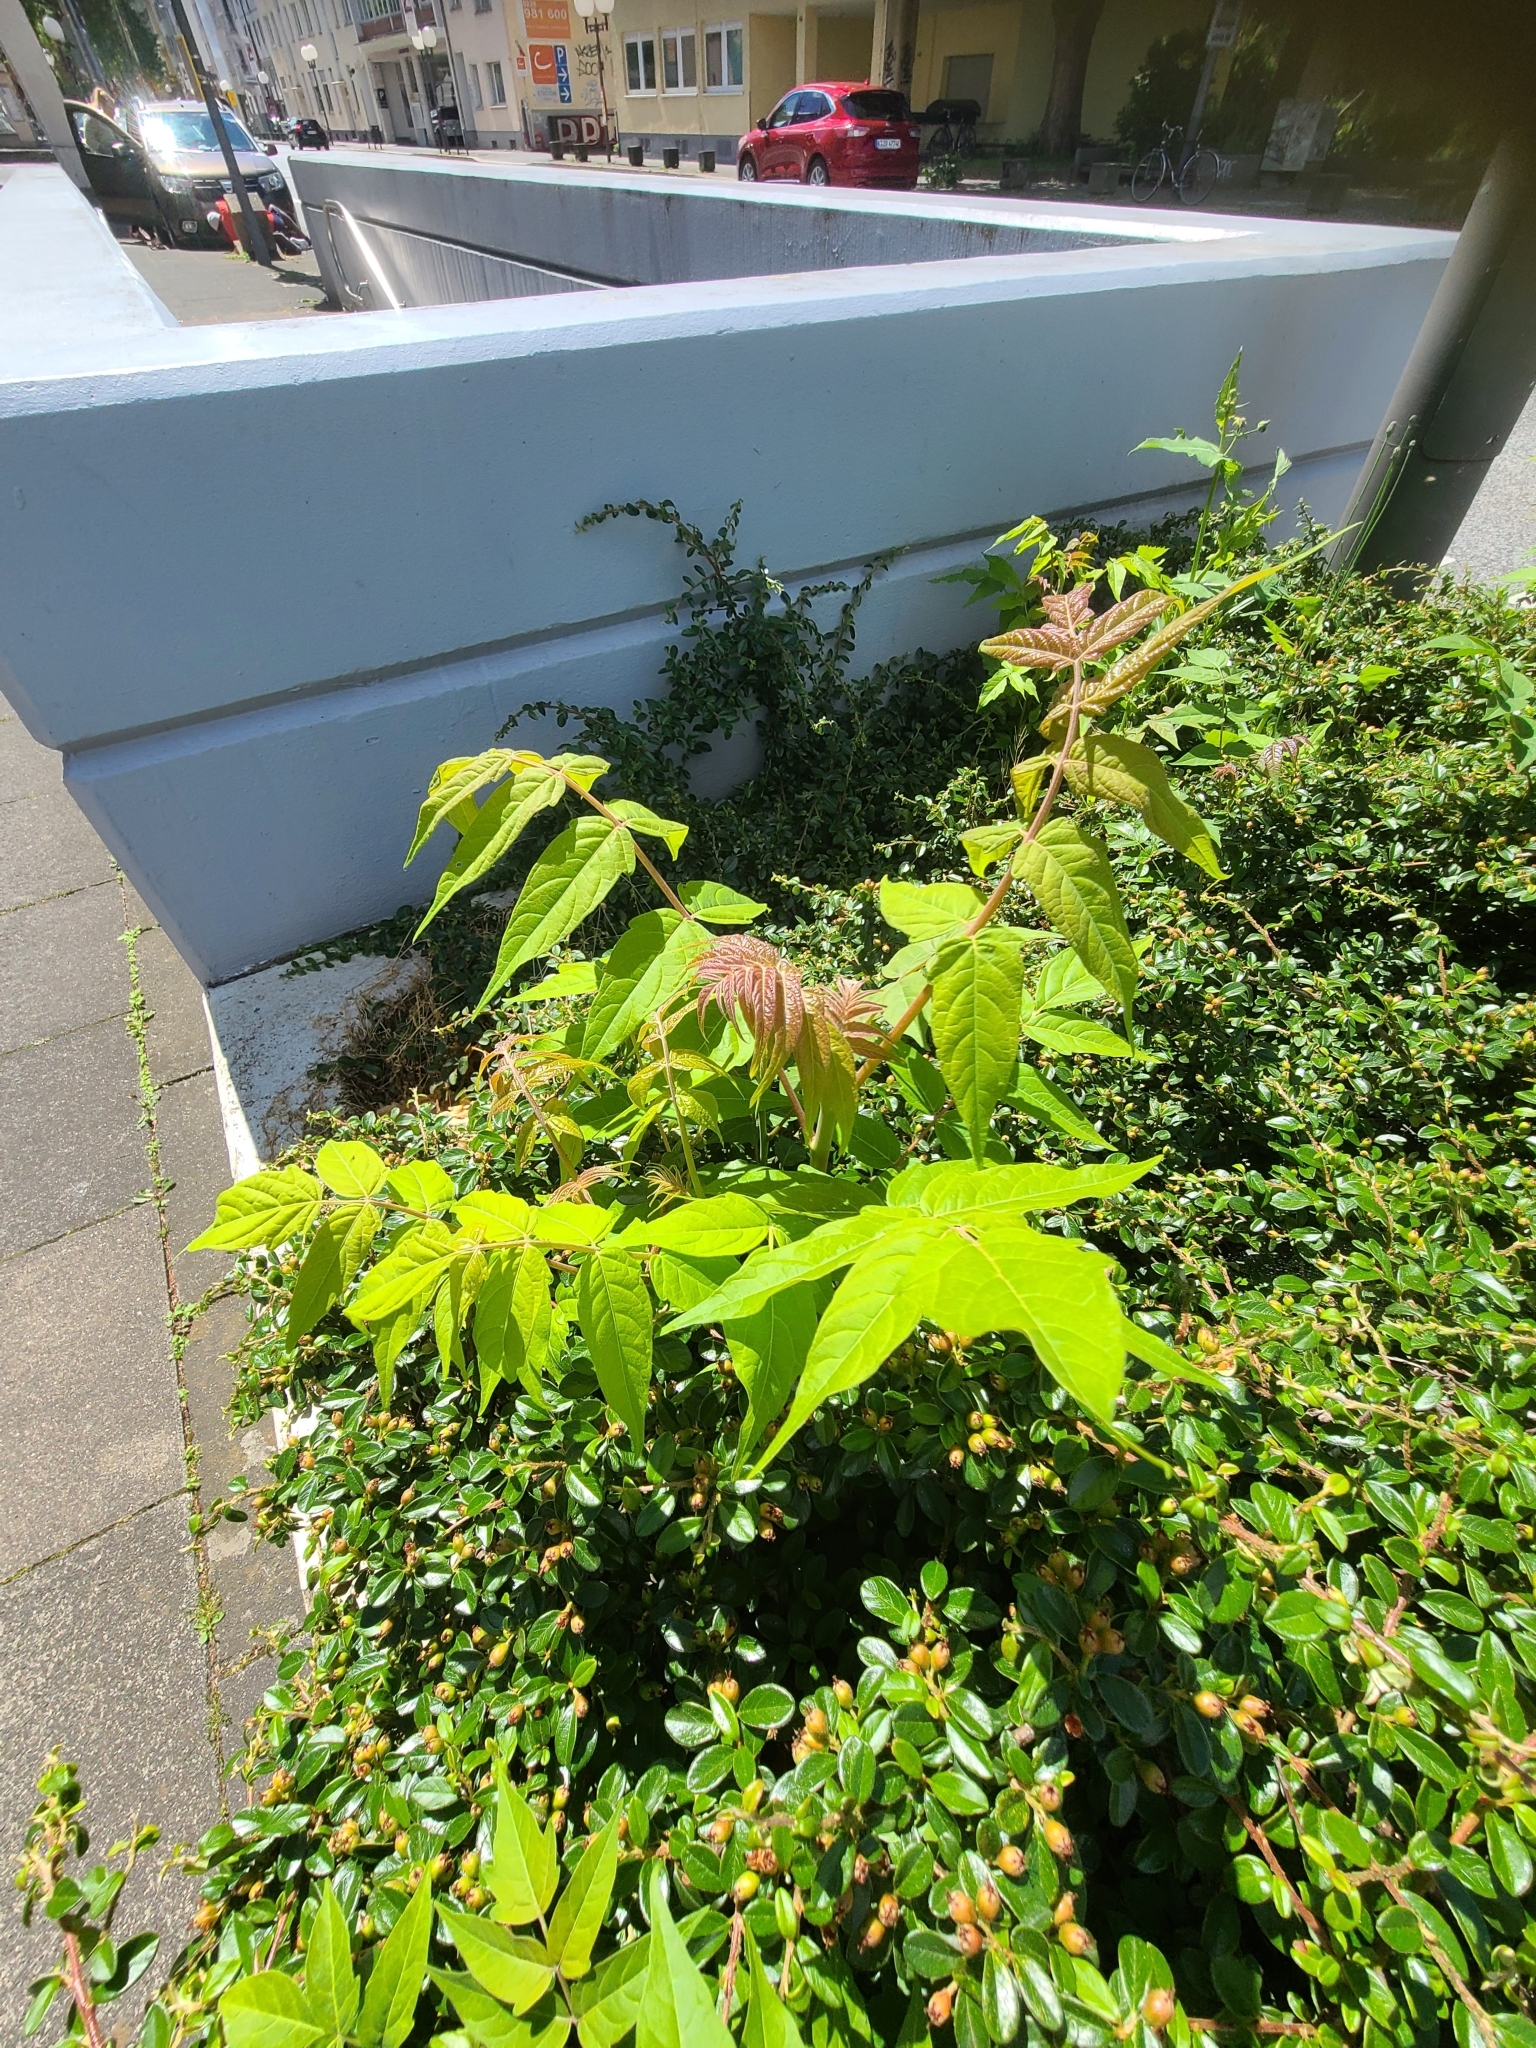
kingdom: Plantae
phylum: Tracheophyta
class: Magnoliopsida
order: Sapindales
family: Simaroubaceae
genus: Ailanthus
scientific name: Ailanthus altissima
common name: Tree-of-heaven
